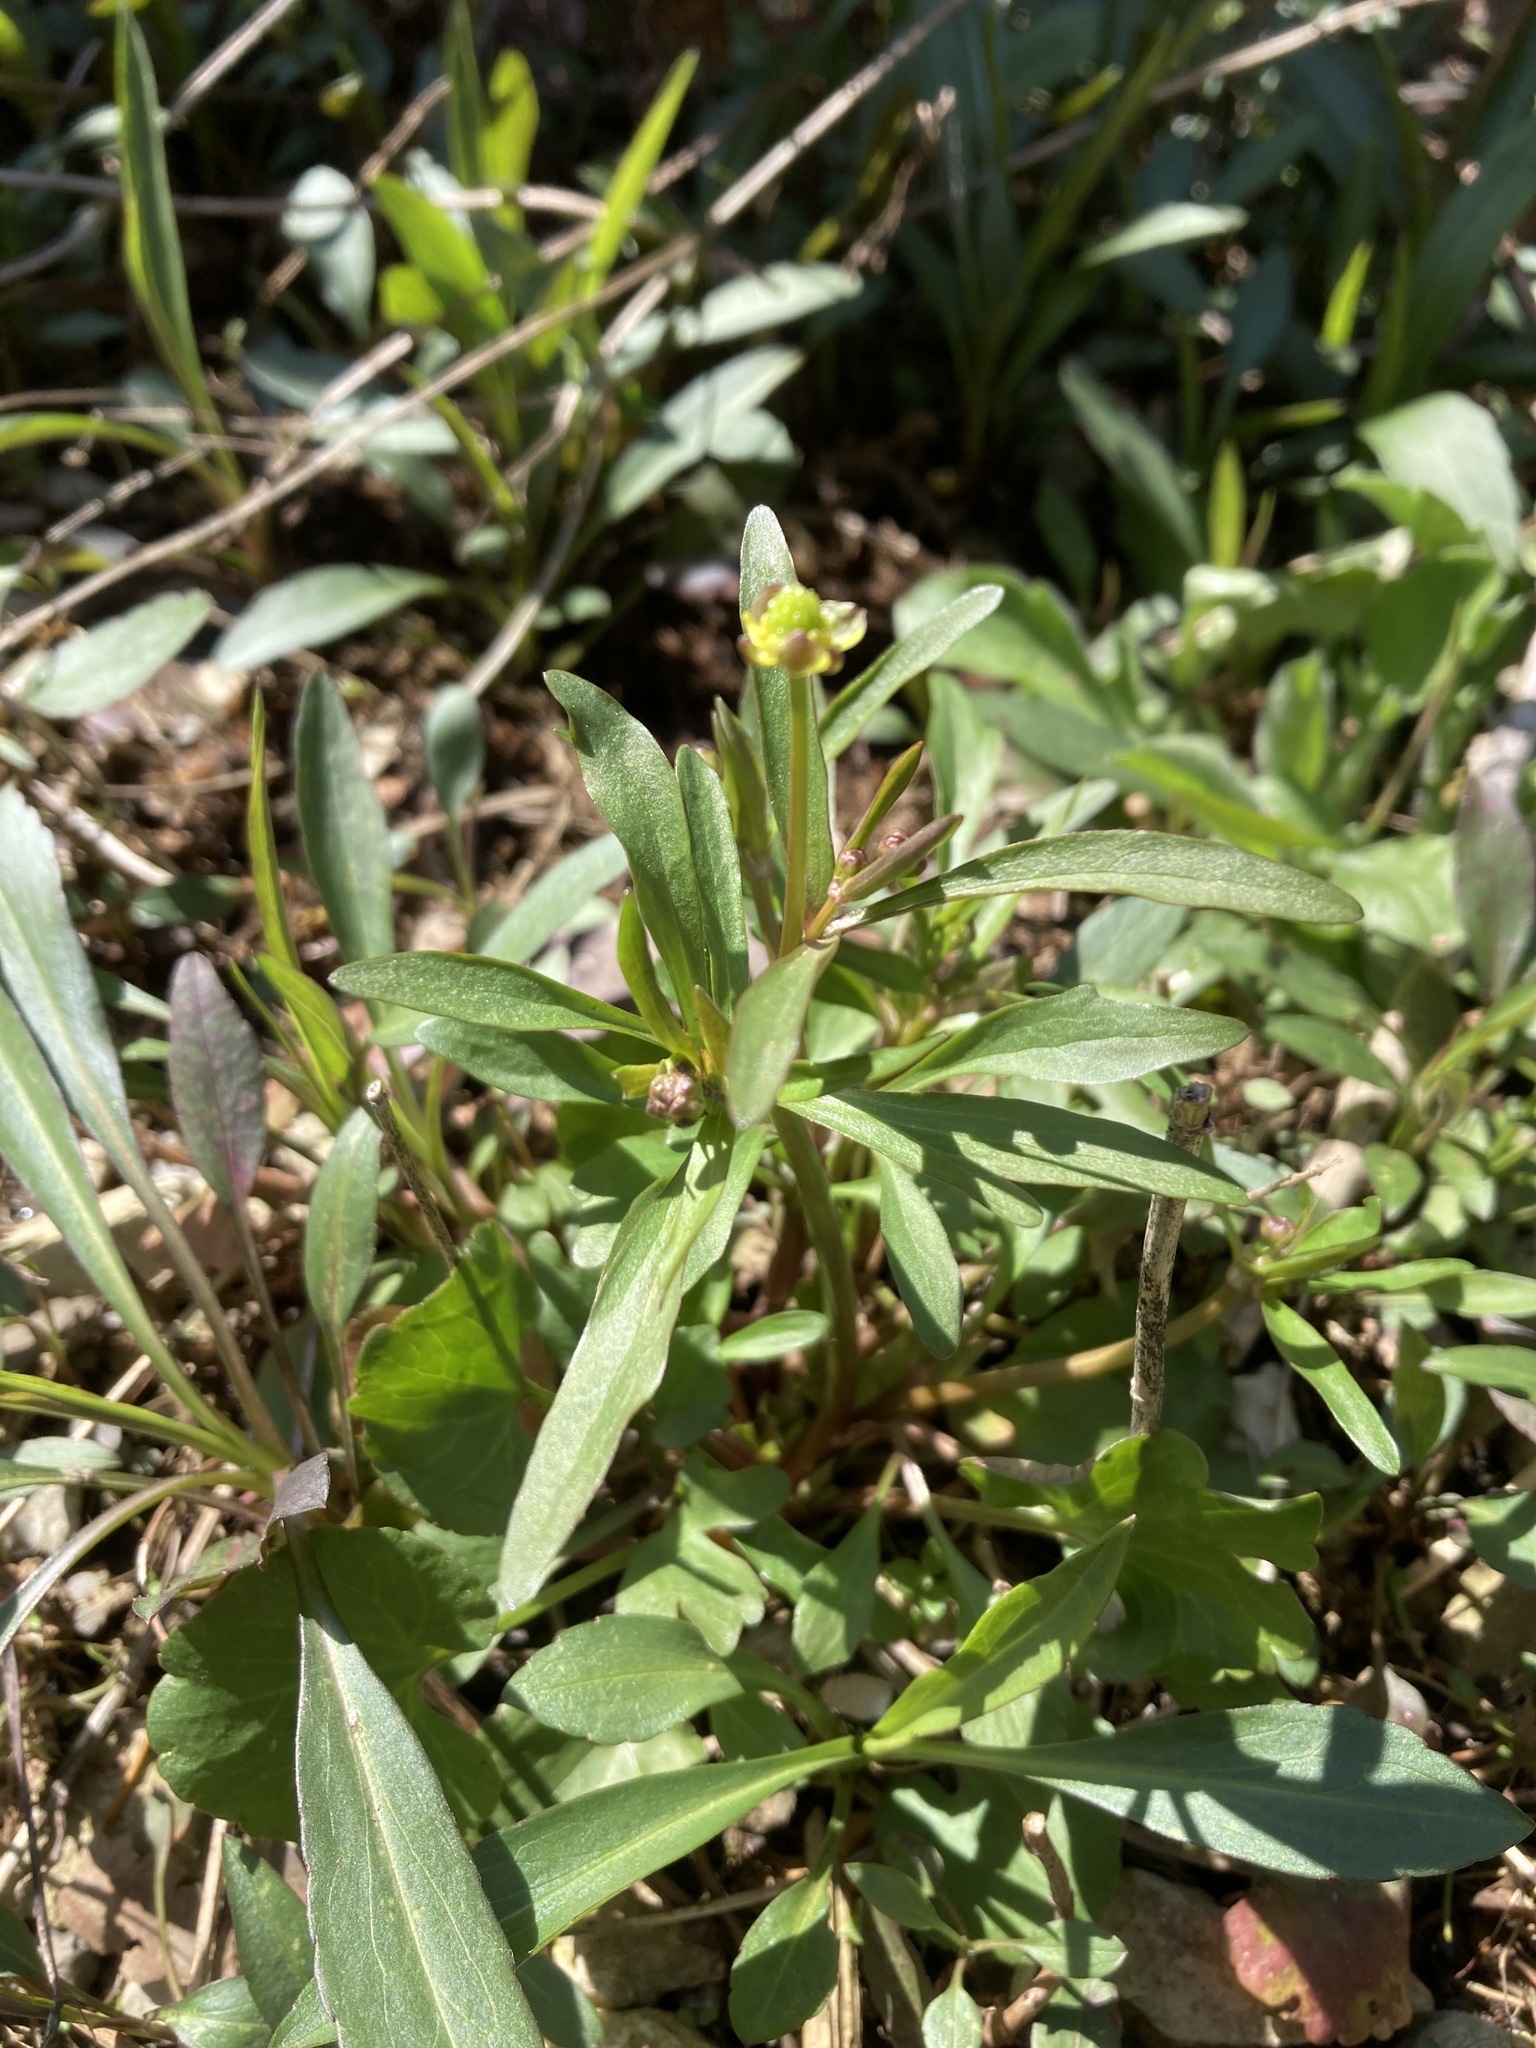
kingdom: Plantae
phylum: Tracheophyta
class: Magnoliopsida
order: Ranunculales
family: Ranunculaceae
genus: Ranunculus
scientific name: Ranunculus abortivus
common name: Early wood buttercup
